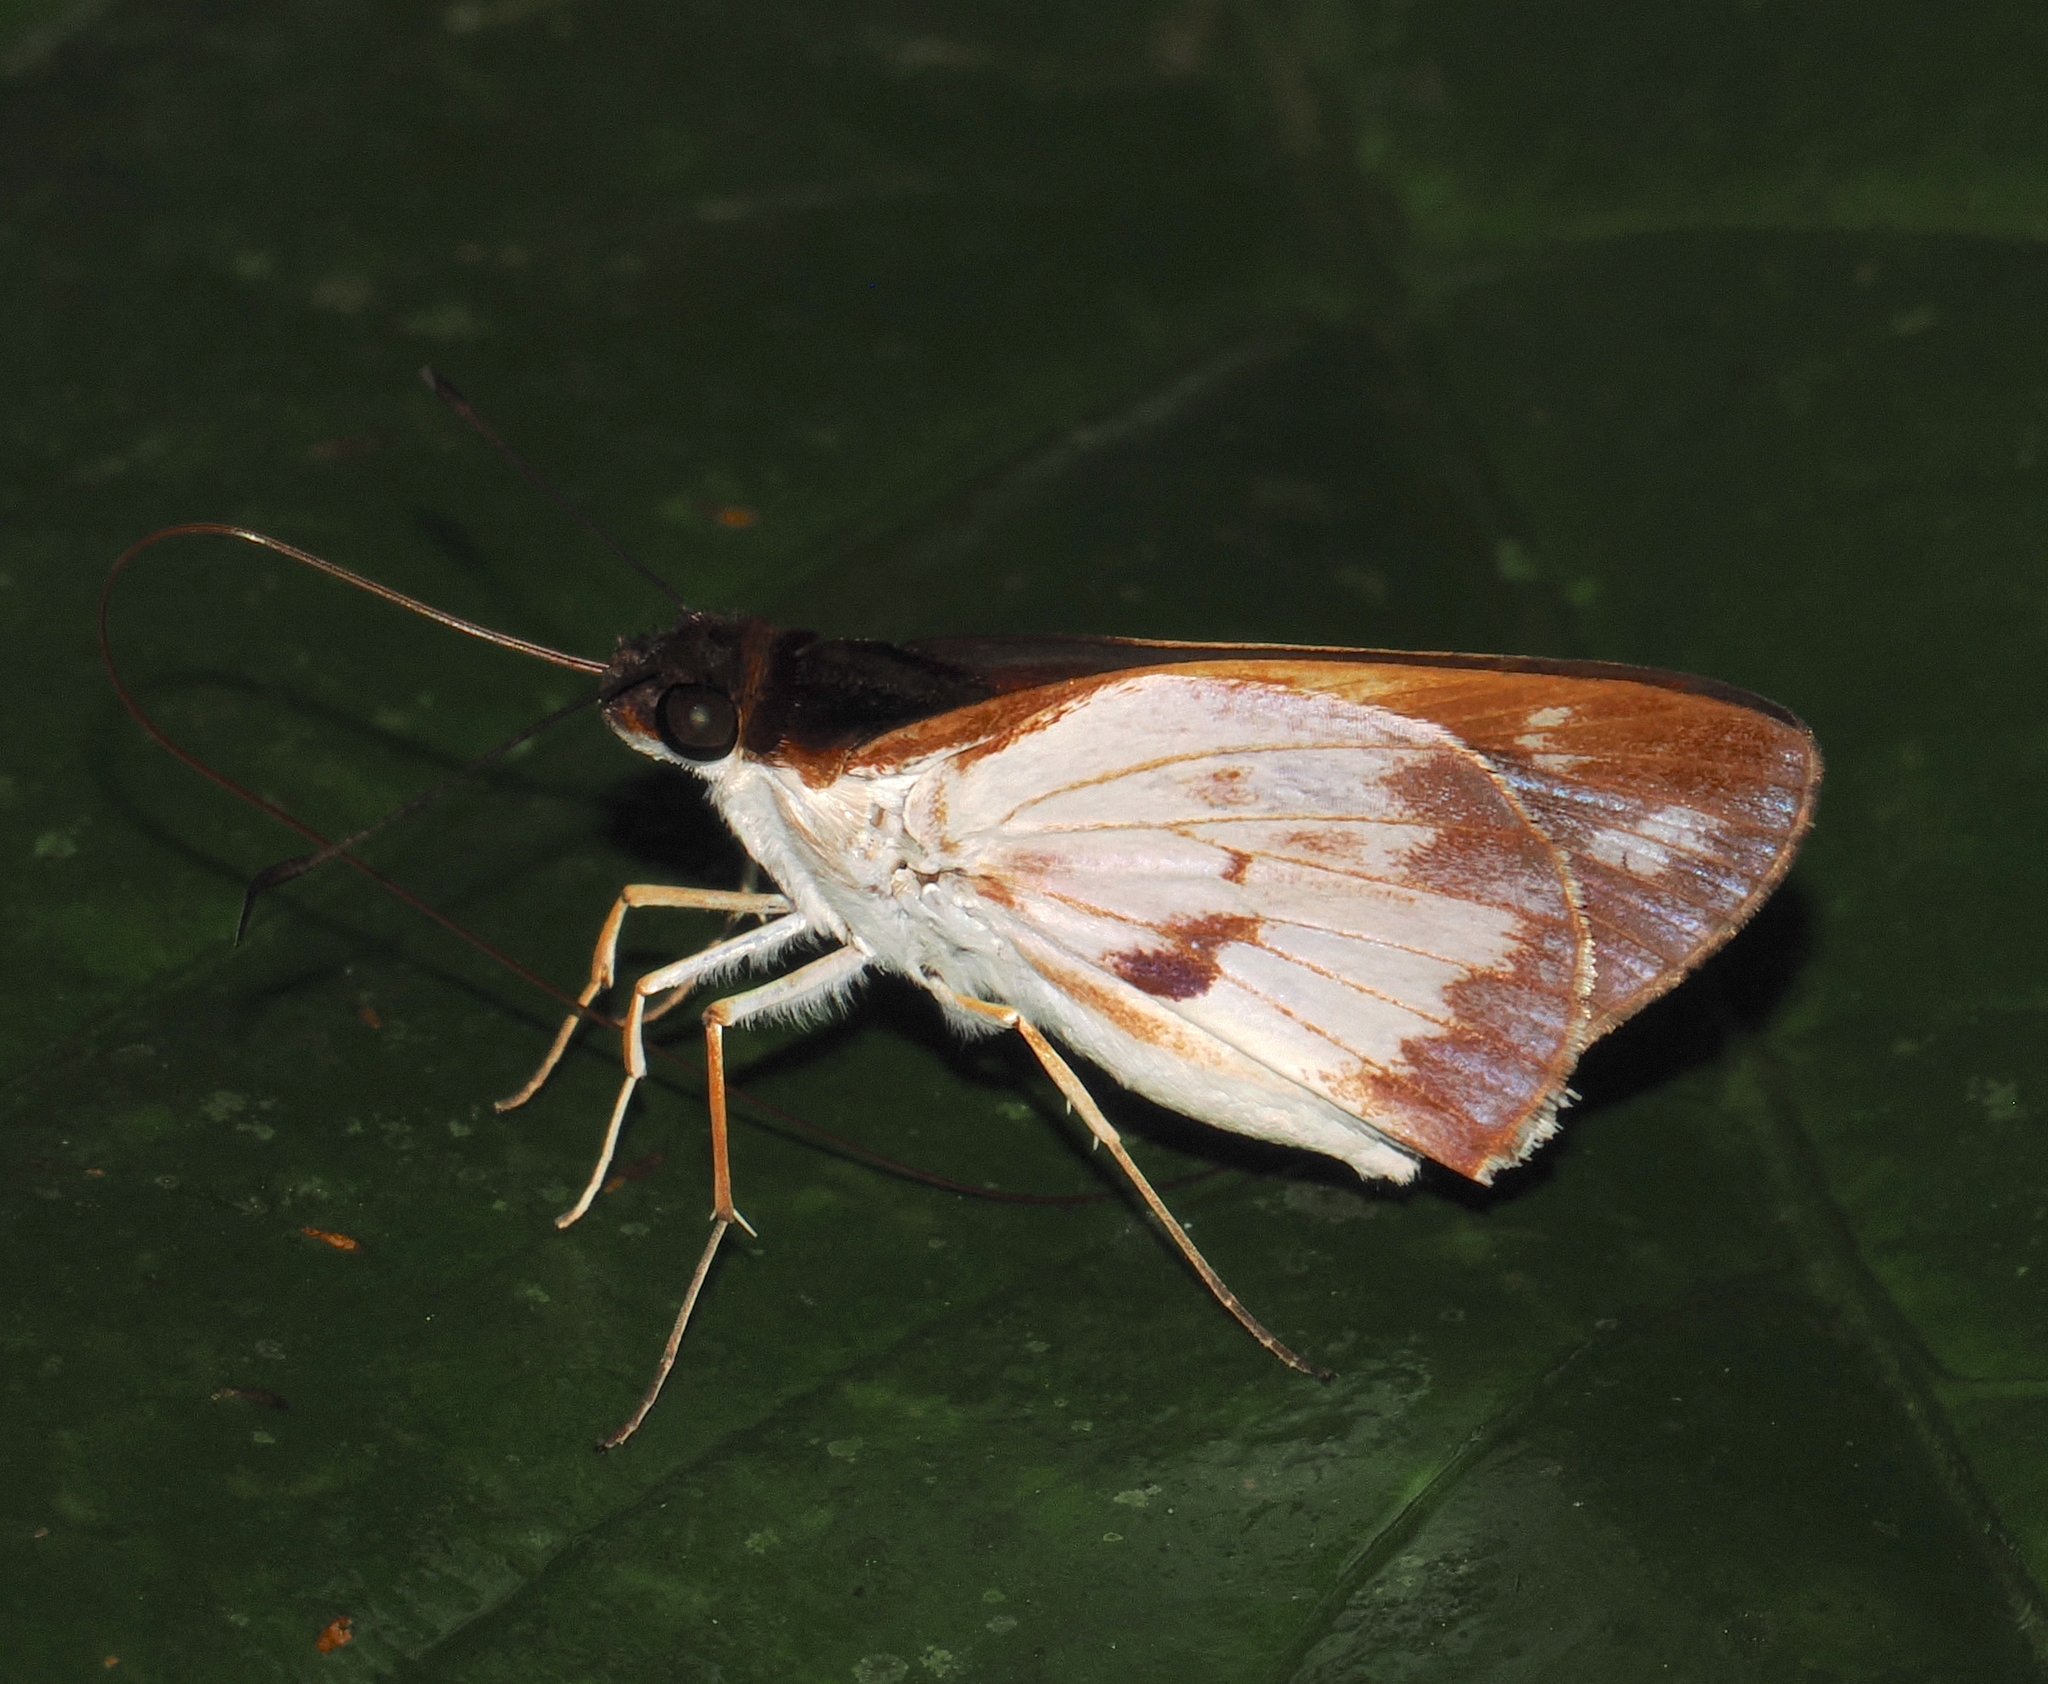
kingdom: Animalia
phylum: Arthropoda
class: Insecta
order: Lepidoptera
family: Hesperiidae
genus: Ebusus
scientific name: Ebusus ebusus
